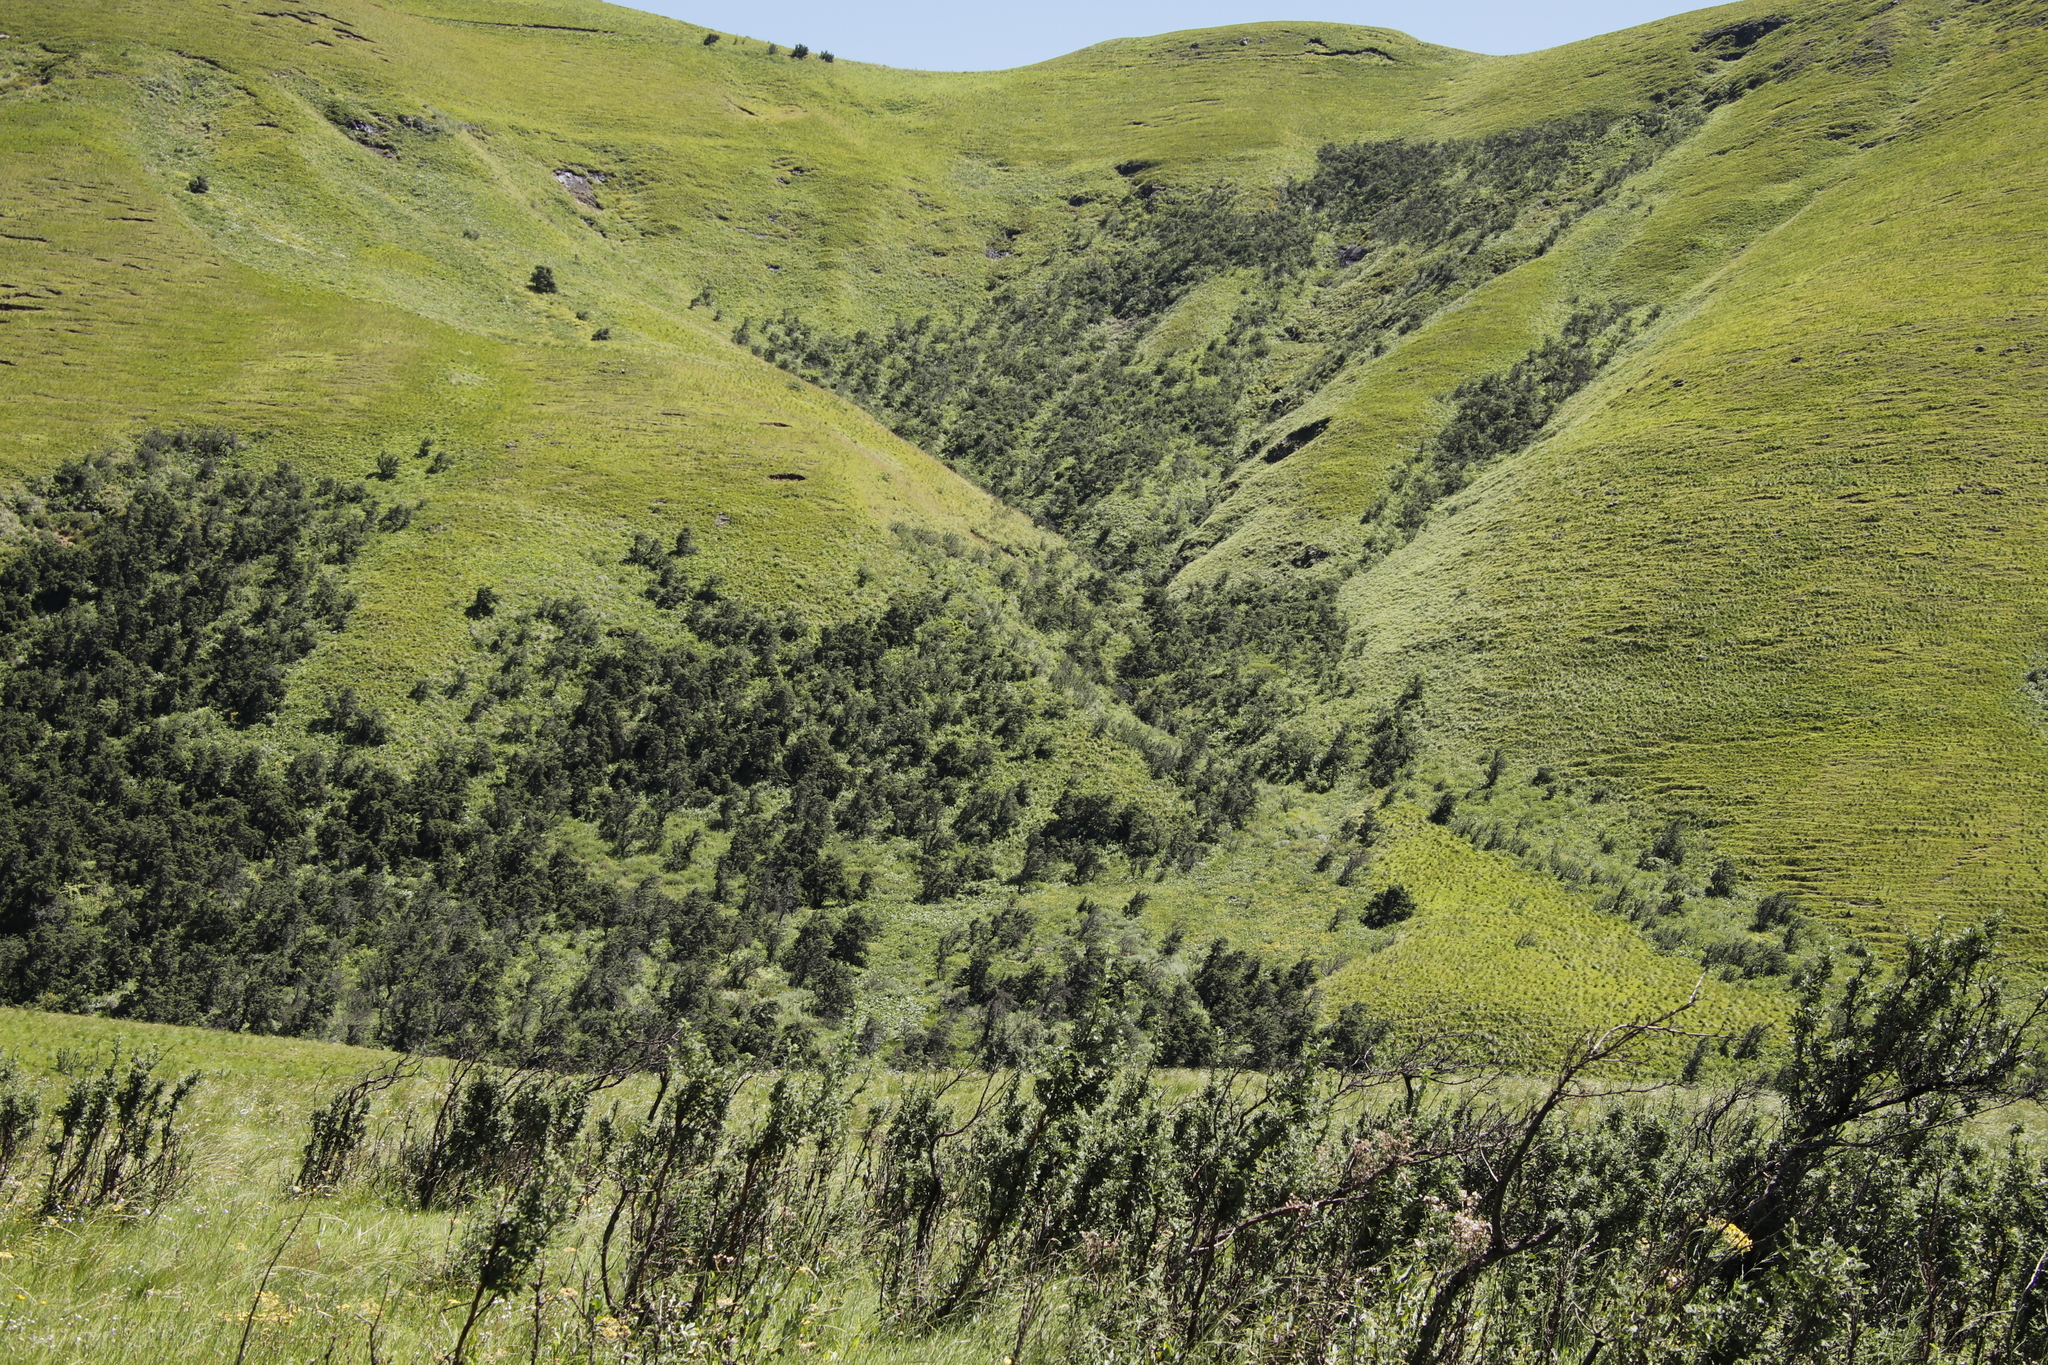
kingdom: Plantae
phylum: Tracheophyta
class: Magnoliopsida
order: Rosales
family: Rosaceae
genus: Leucosidea
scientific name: Leucosidea sericea
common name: Oldwood
